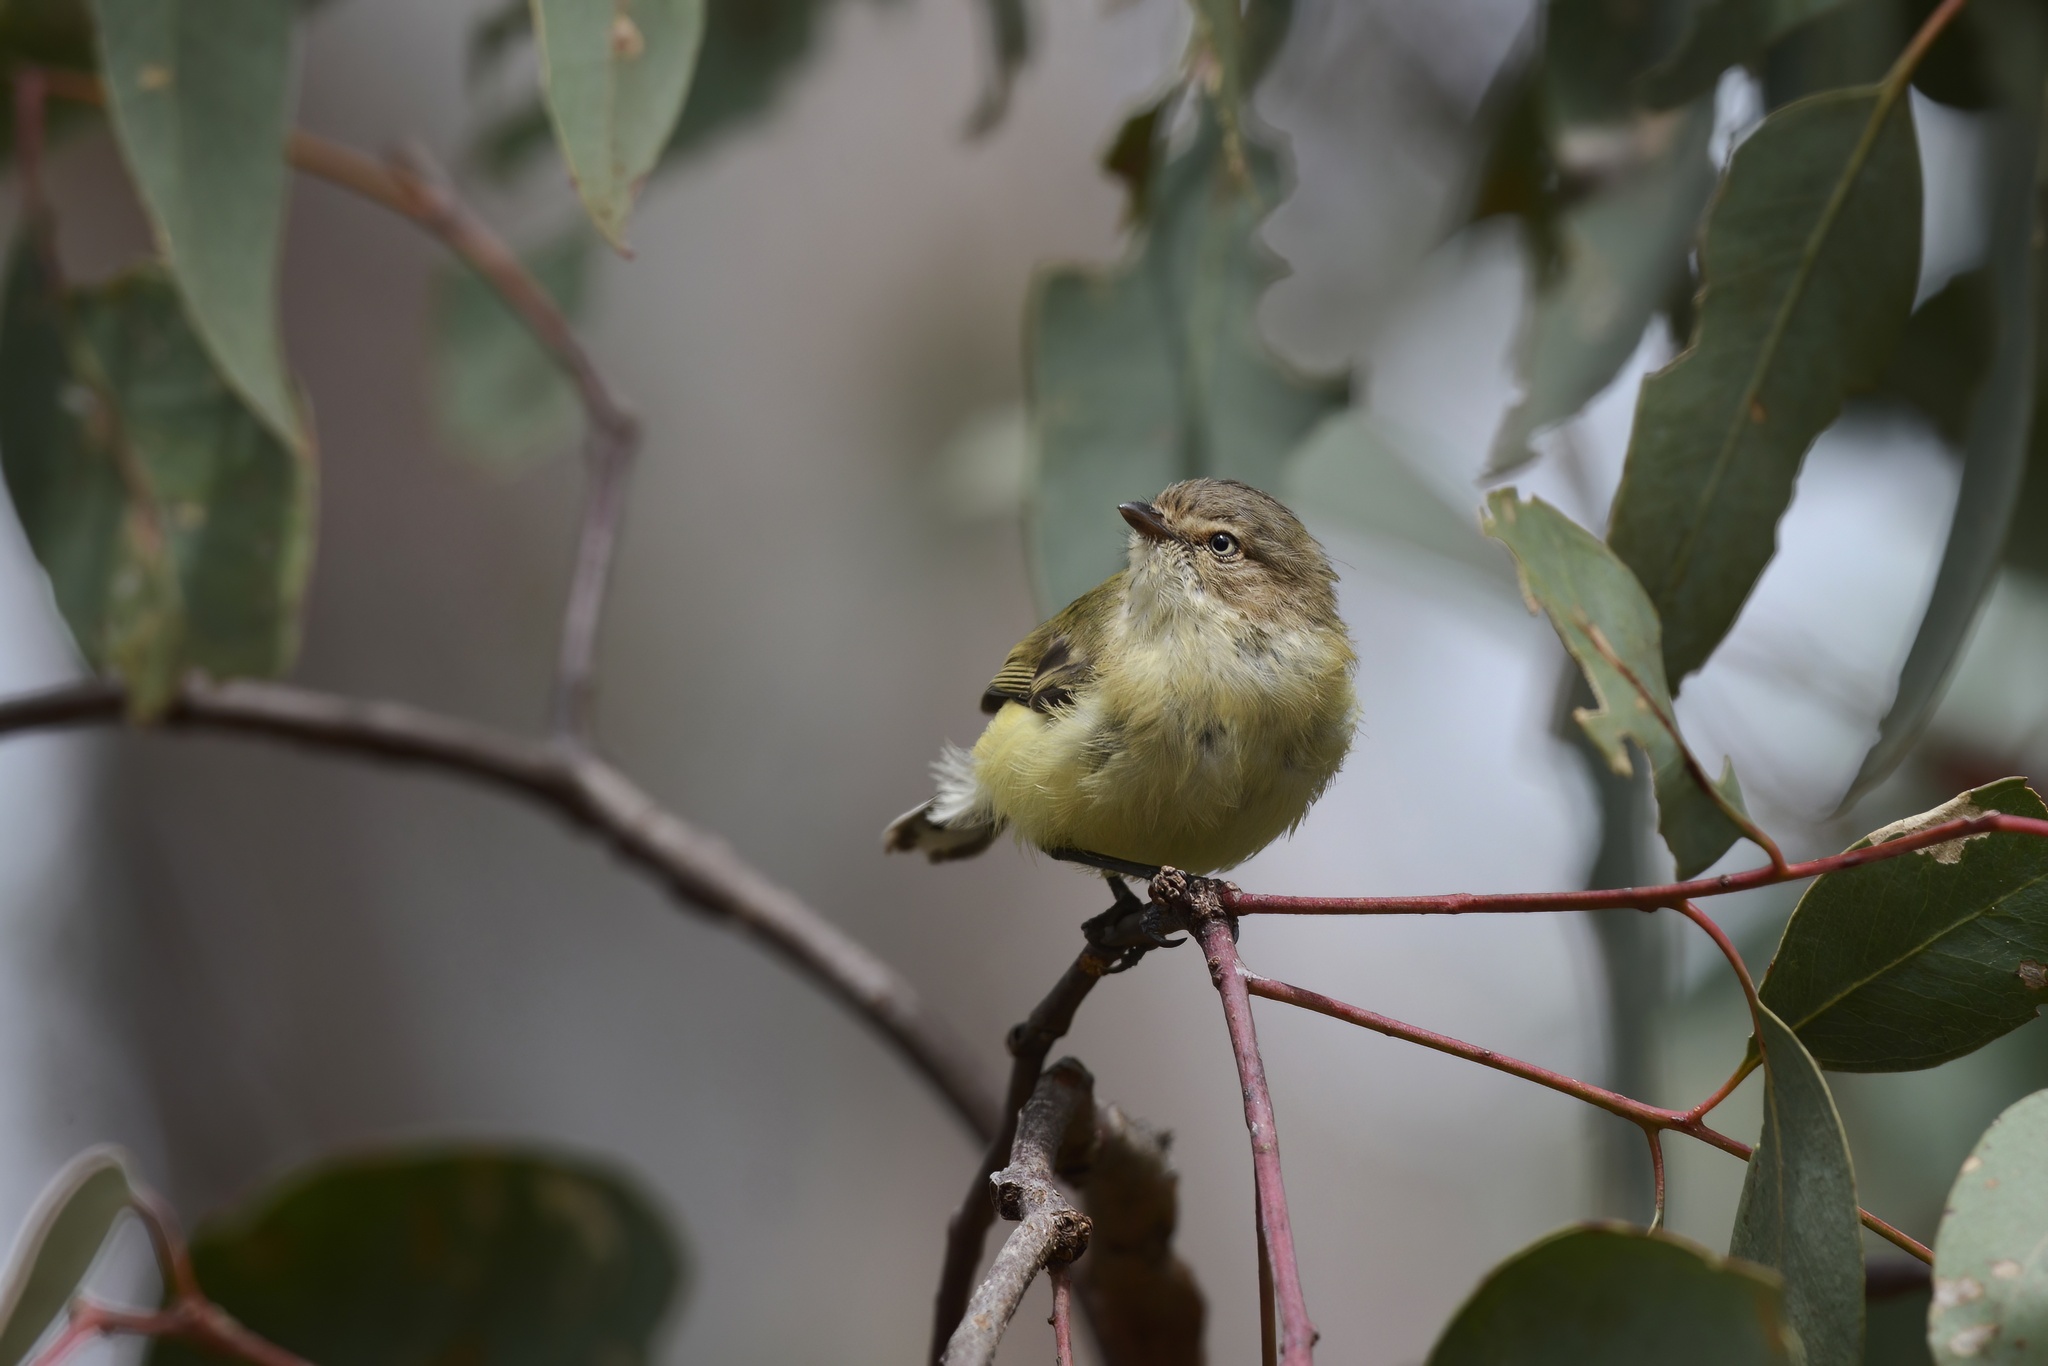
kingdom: Animalia
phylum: Chordata
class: Aves
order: Passeriformes
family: Acanthizidae
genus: Smicrornis
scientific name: Smicrornis brevirostris
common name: Weebill
